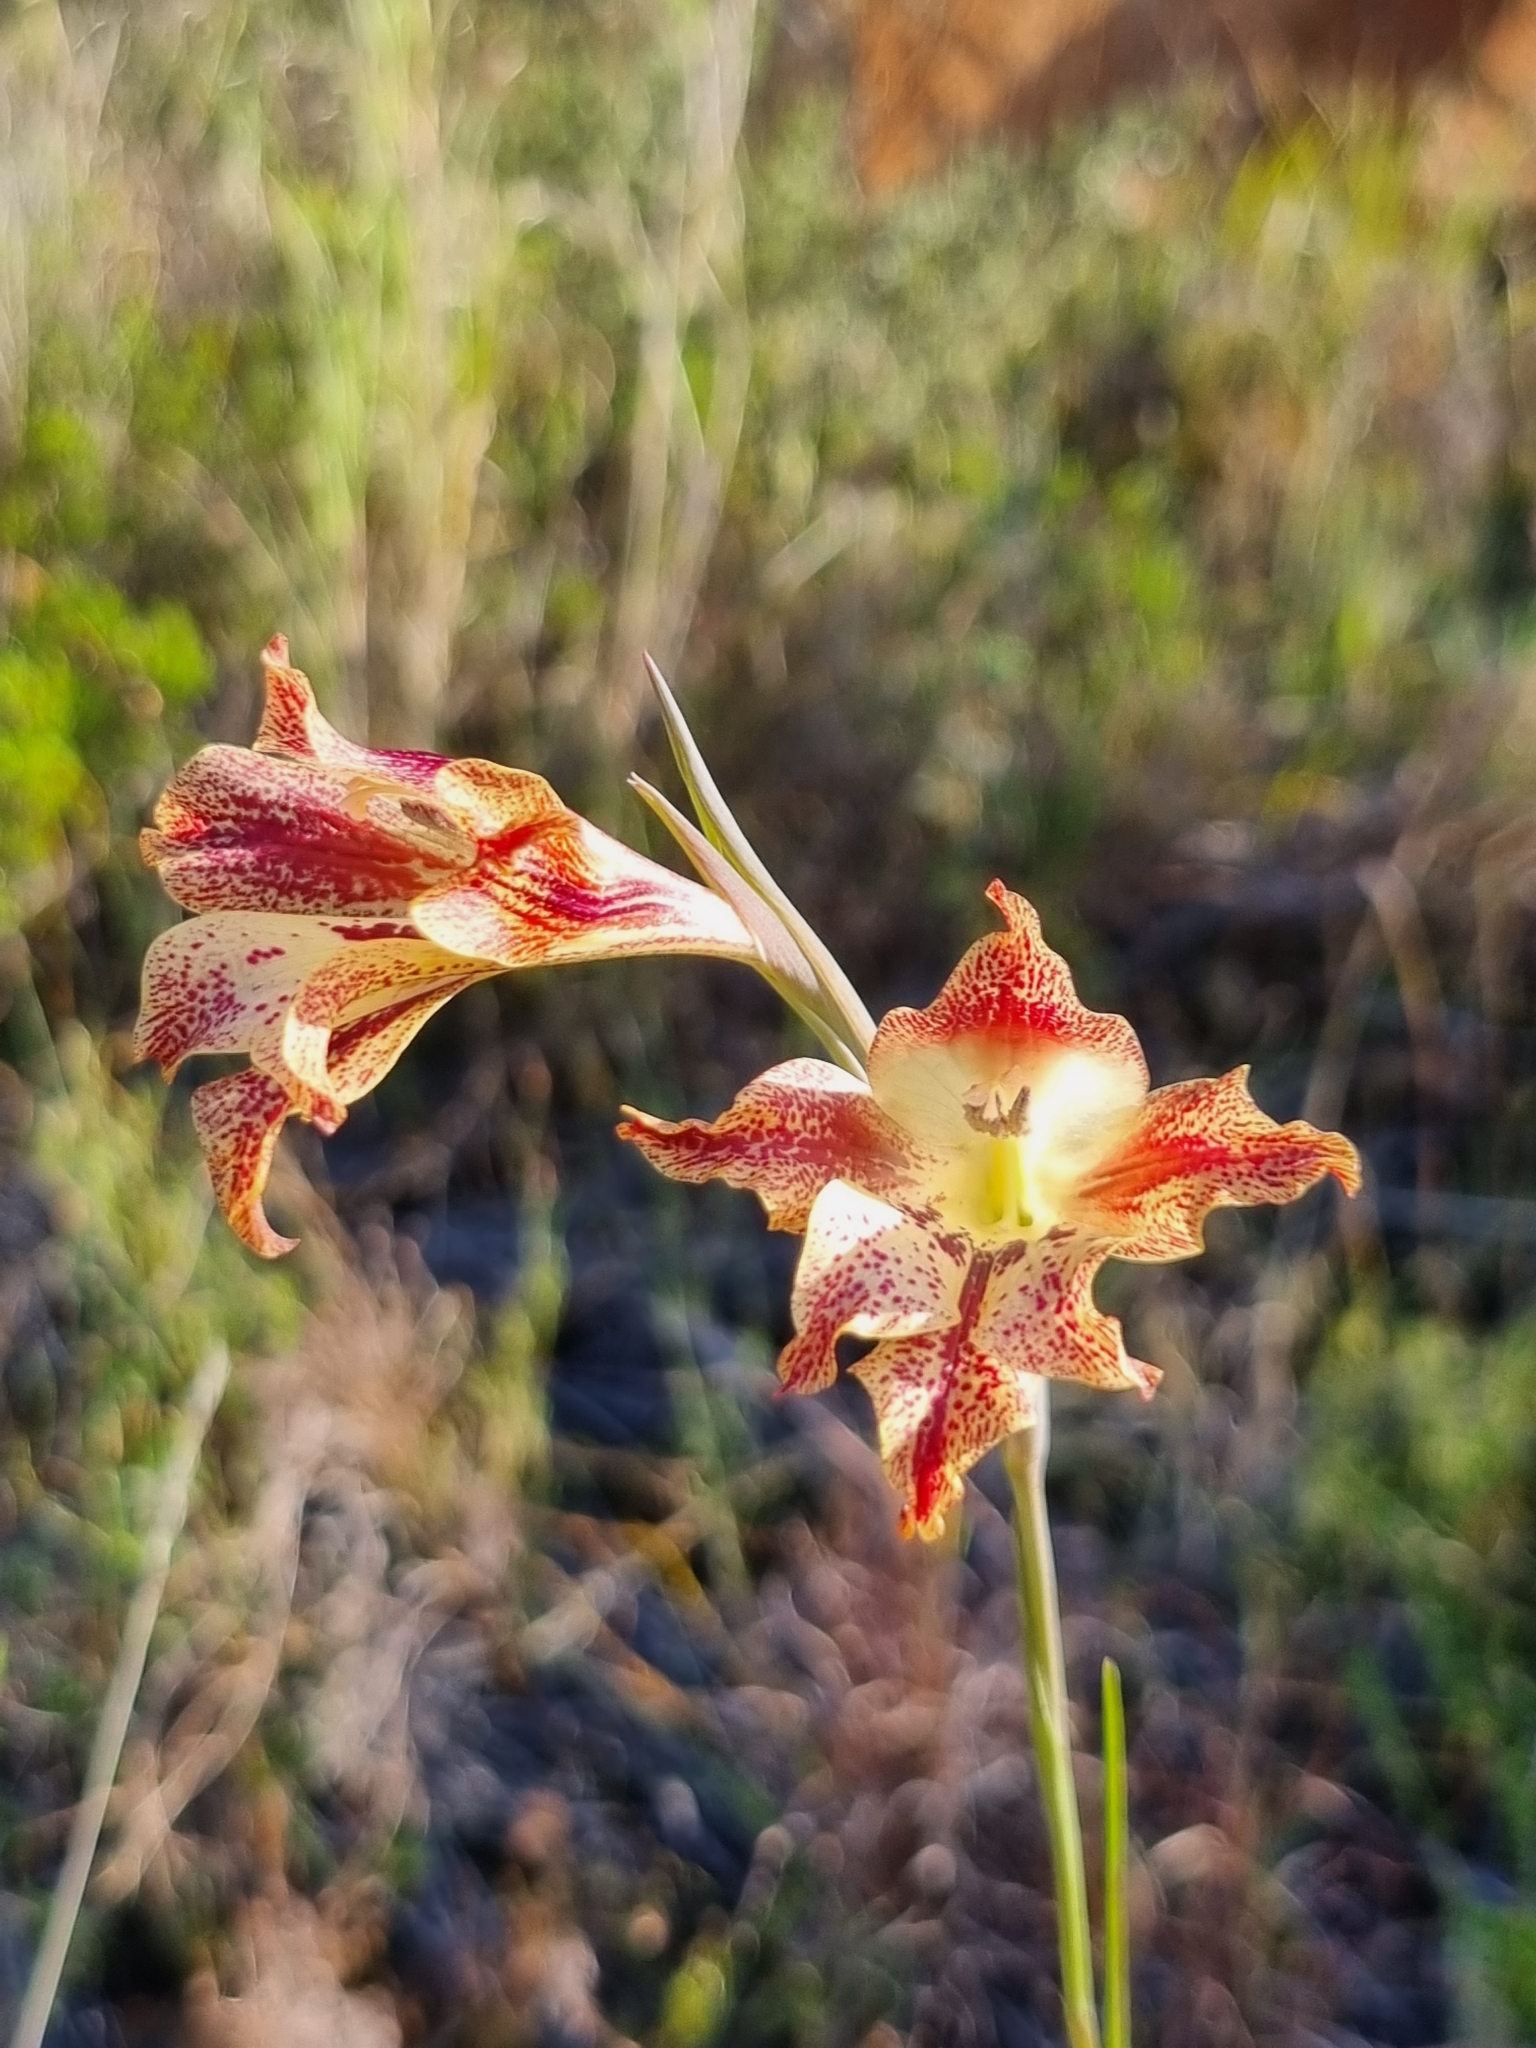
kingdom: Plantae
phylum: Tracheophyta
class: Liliopsida
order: Asparagales
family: Iridaceae
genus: Gladiolus
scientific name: Gladiolus maculatus
